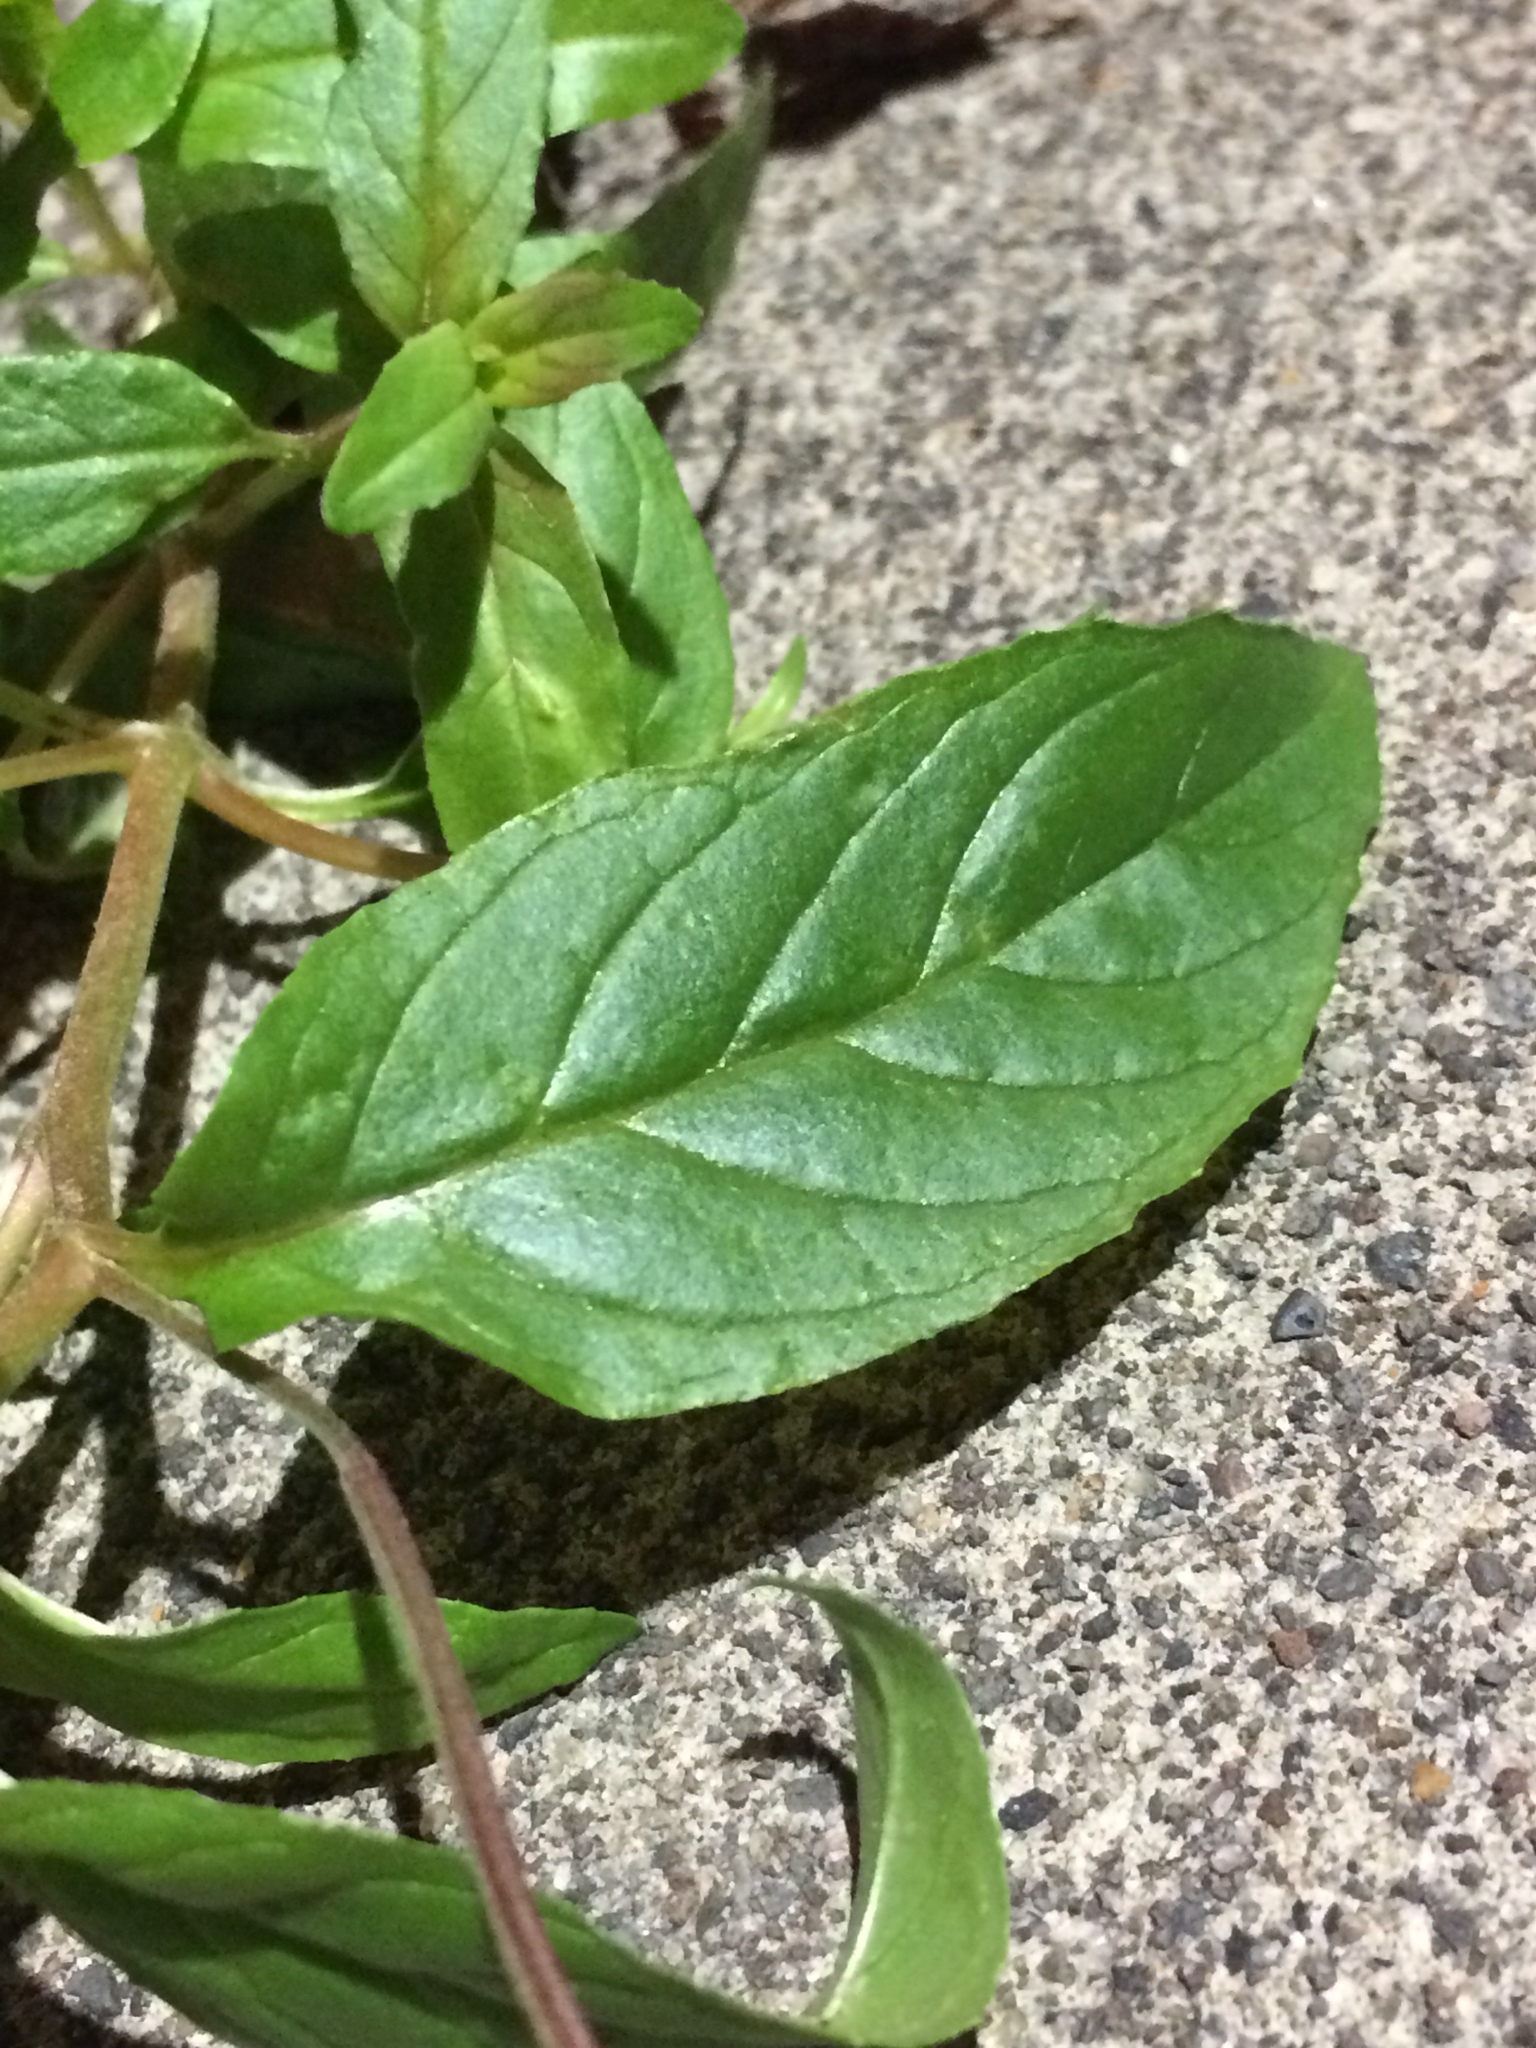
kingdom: Plantae
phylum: Tracheophyta
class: Magnoliopsida
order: Myrtales
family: Onagraceae
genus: Epilobium
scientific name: Epilobium ciliatum
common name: American willowherb
